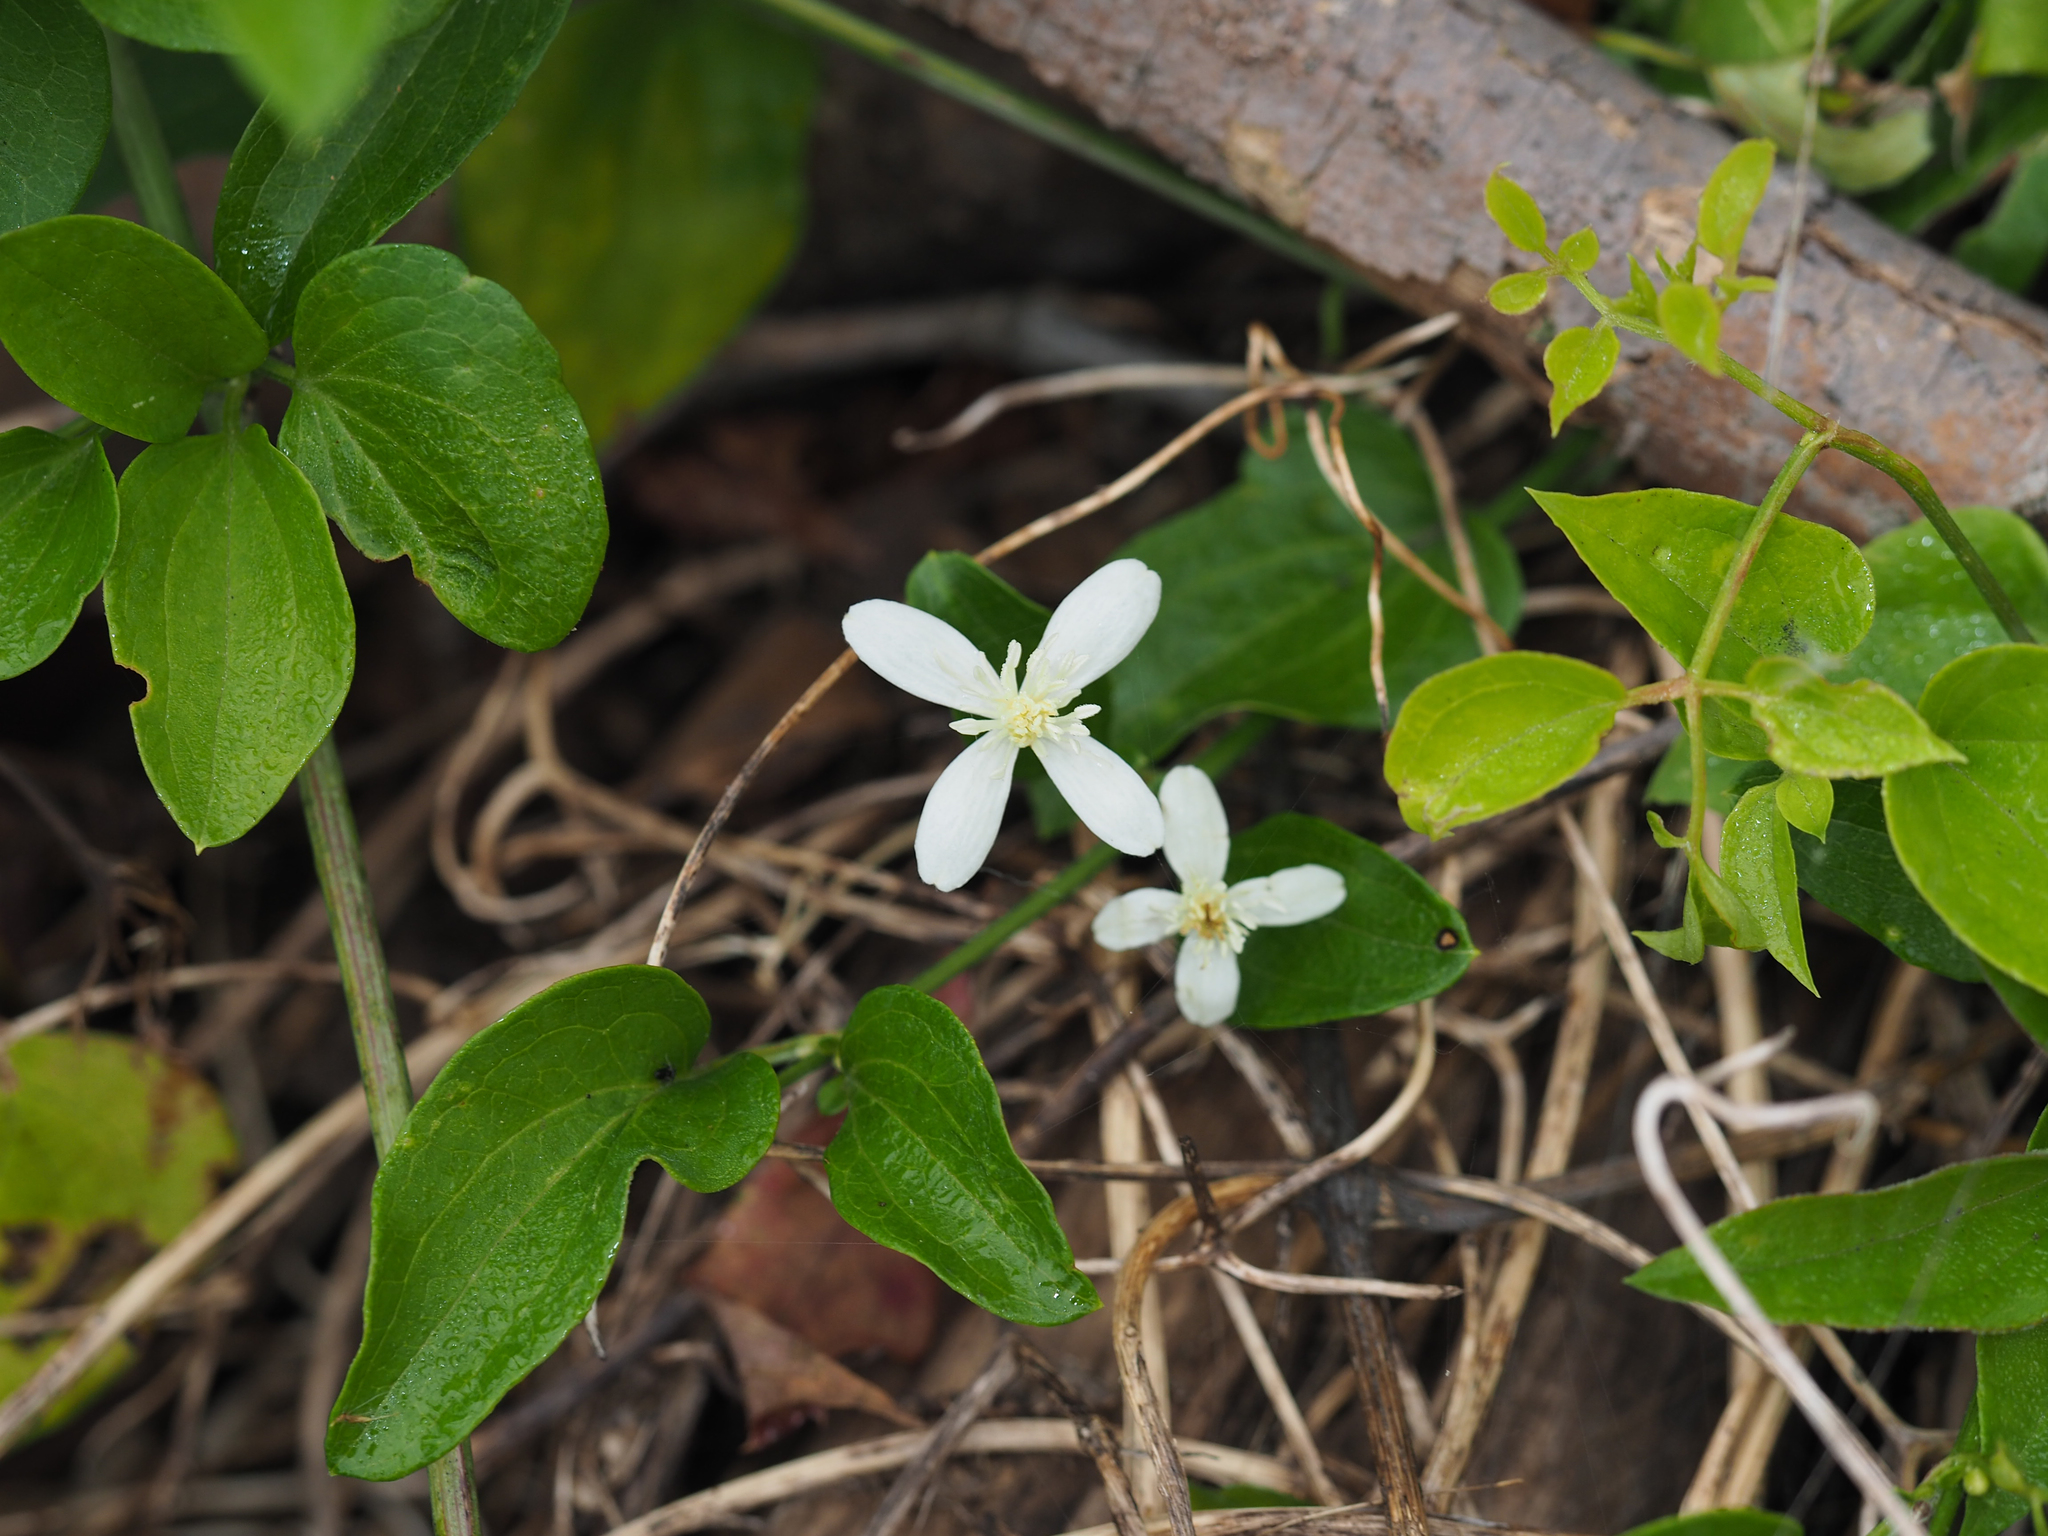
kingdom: Plantae
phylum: Tracheophyta
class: Magnoliopsida
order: Ranunculales
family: Ranunculaceae
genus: Clematis
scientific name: Clematis terniflora
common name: Sweet autumn clematis
